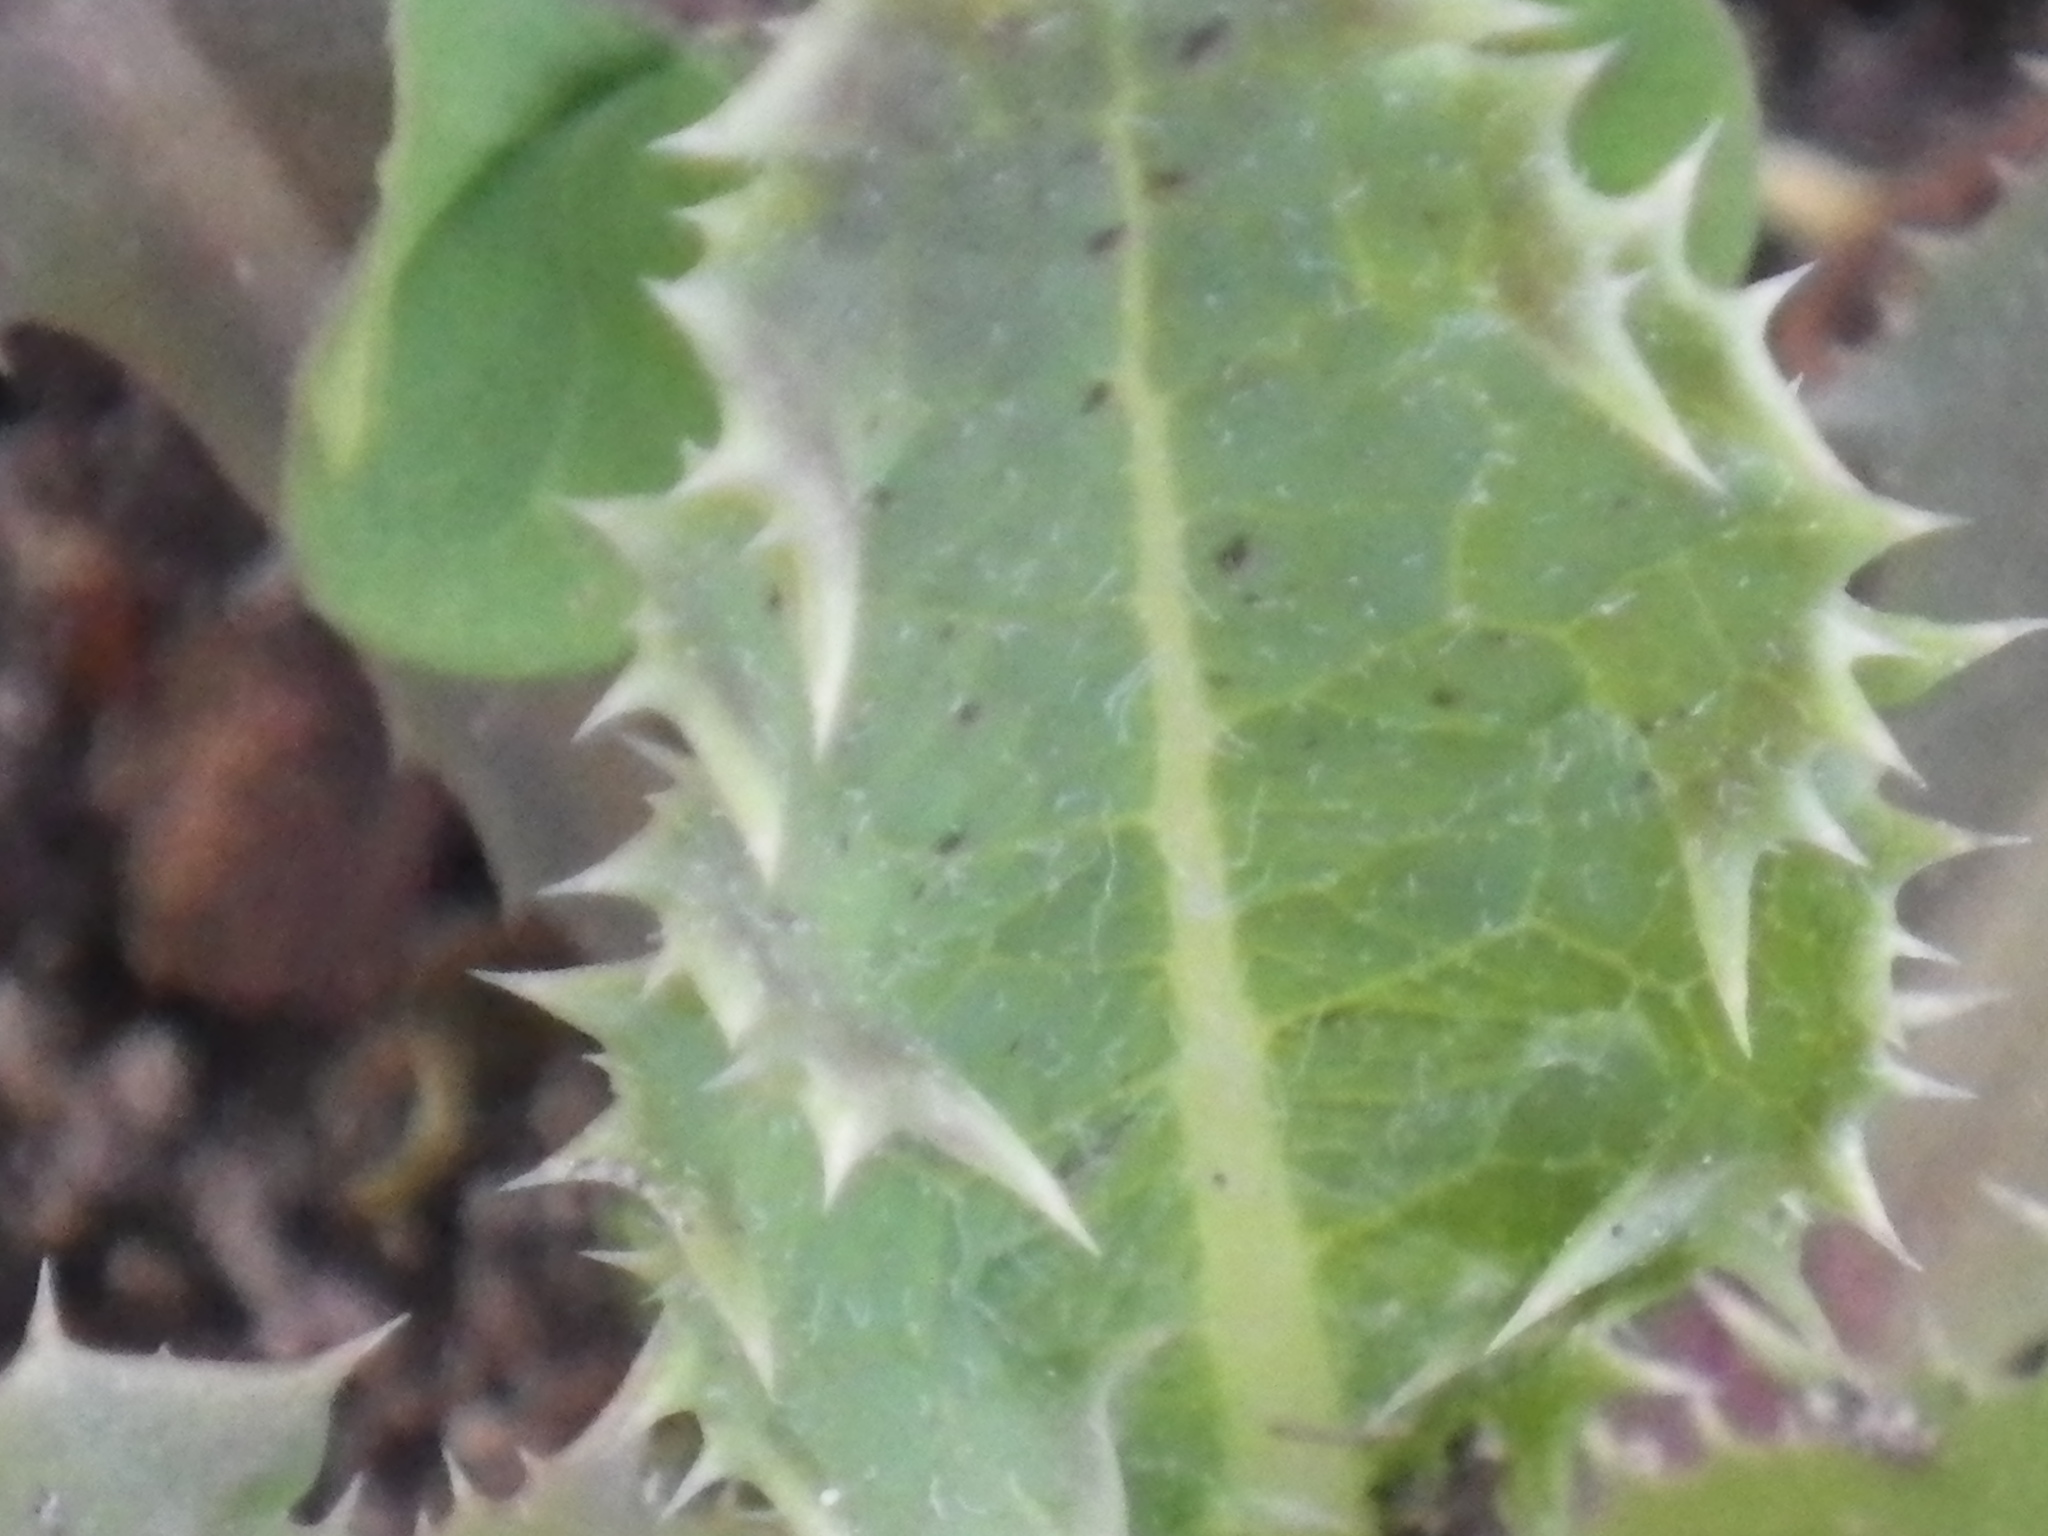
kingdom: Plantae
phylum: Tracheophyta
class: Magnoliopsida
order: Asterales
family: Asteraceae
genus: Sonchus
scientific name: Sonchus asper
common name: Prickly sow-thistle
